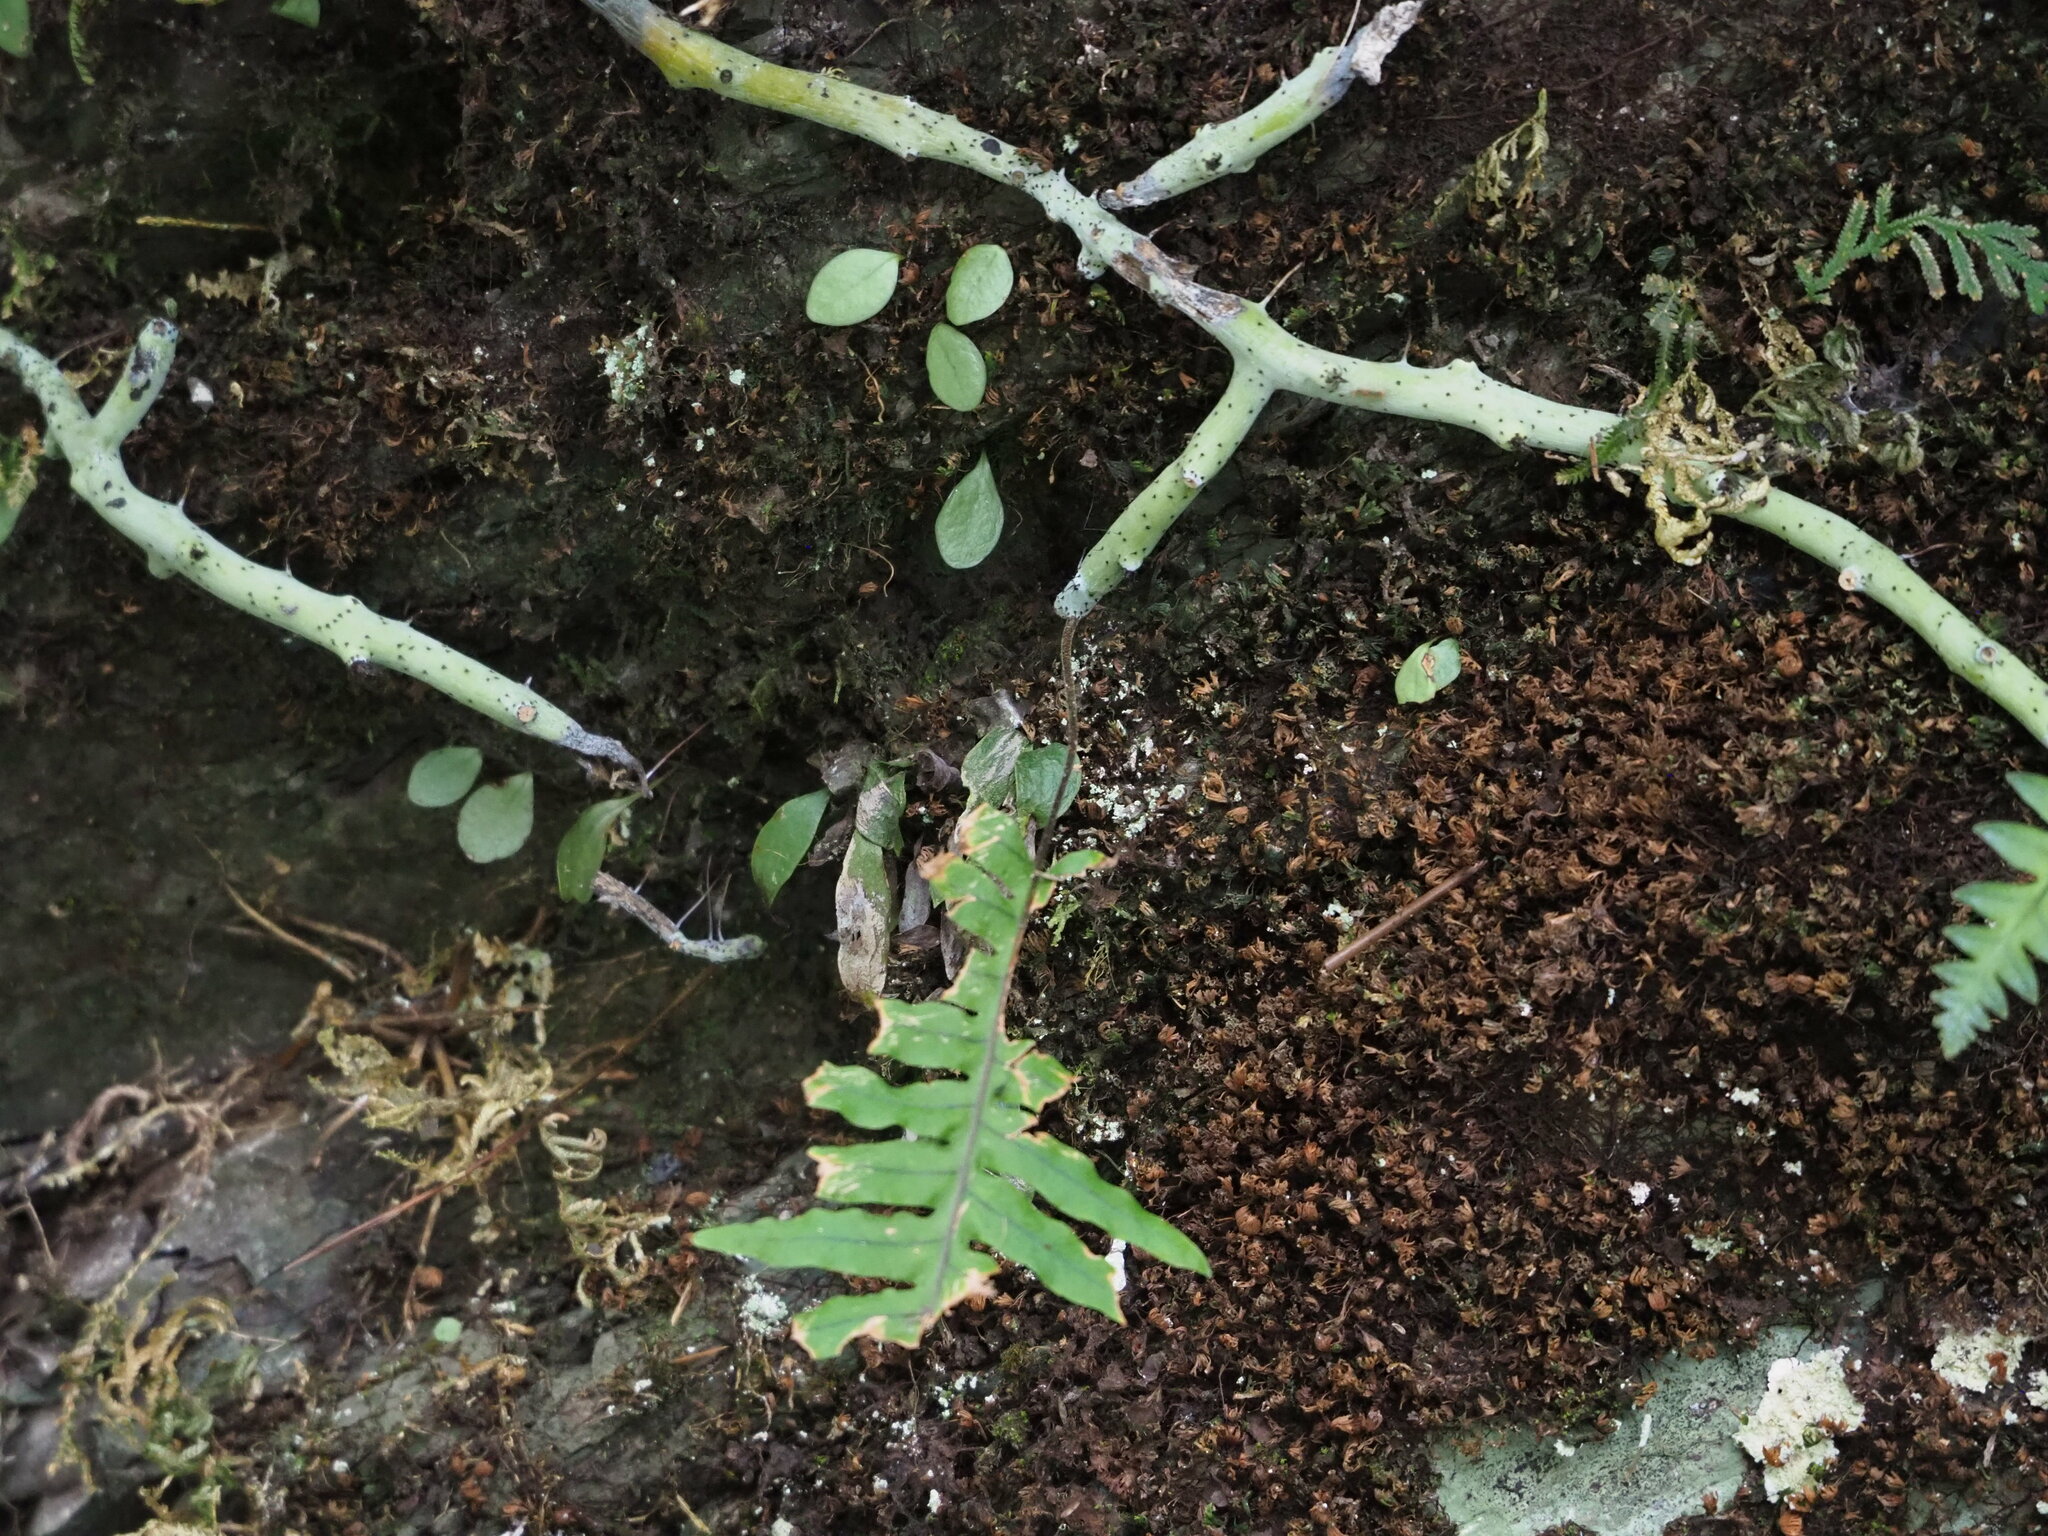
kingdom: Plantae
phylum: Tracheophyta
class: Polypodiopsida
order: Polypodiales
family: Polypodiaceae
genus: Goniophlebium
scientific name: Goniophlebium formosanum
